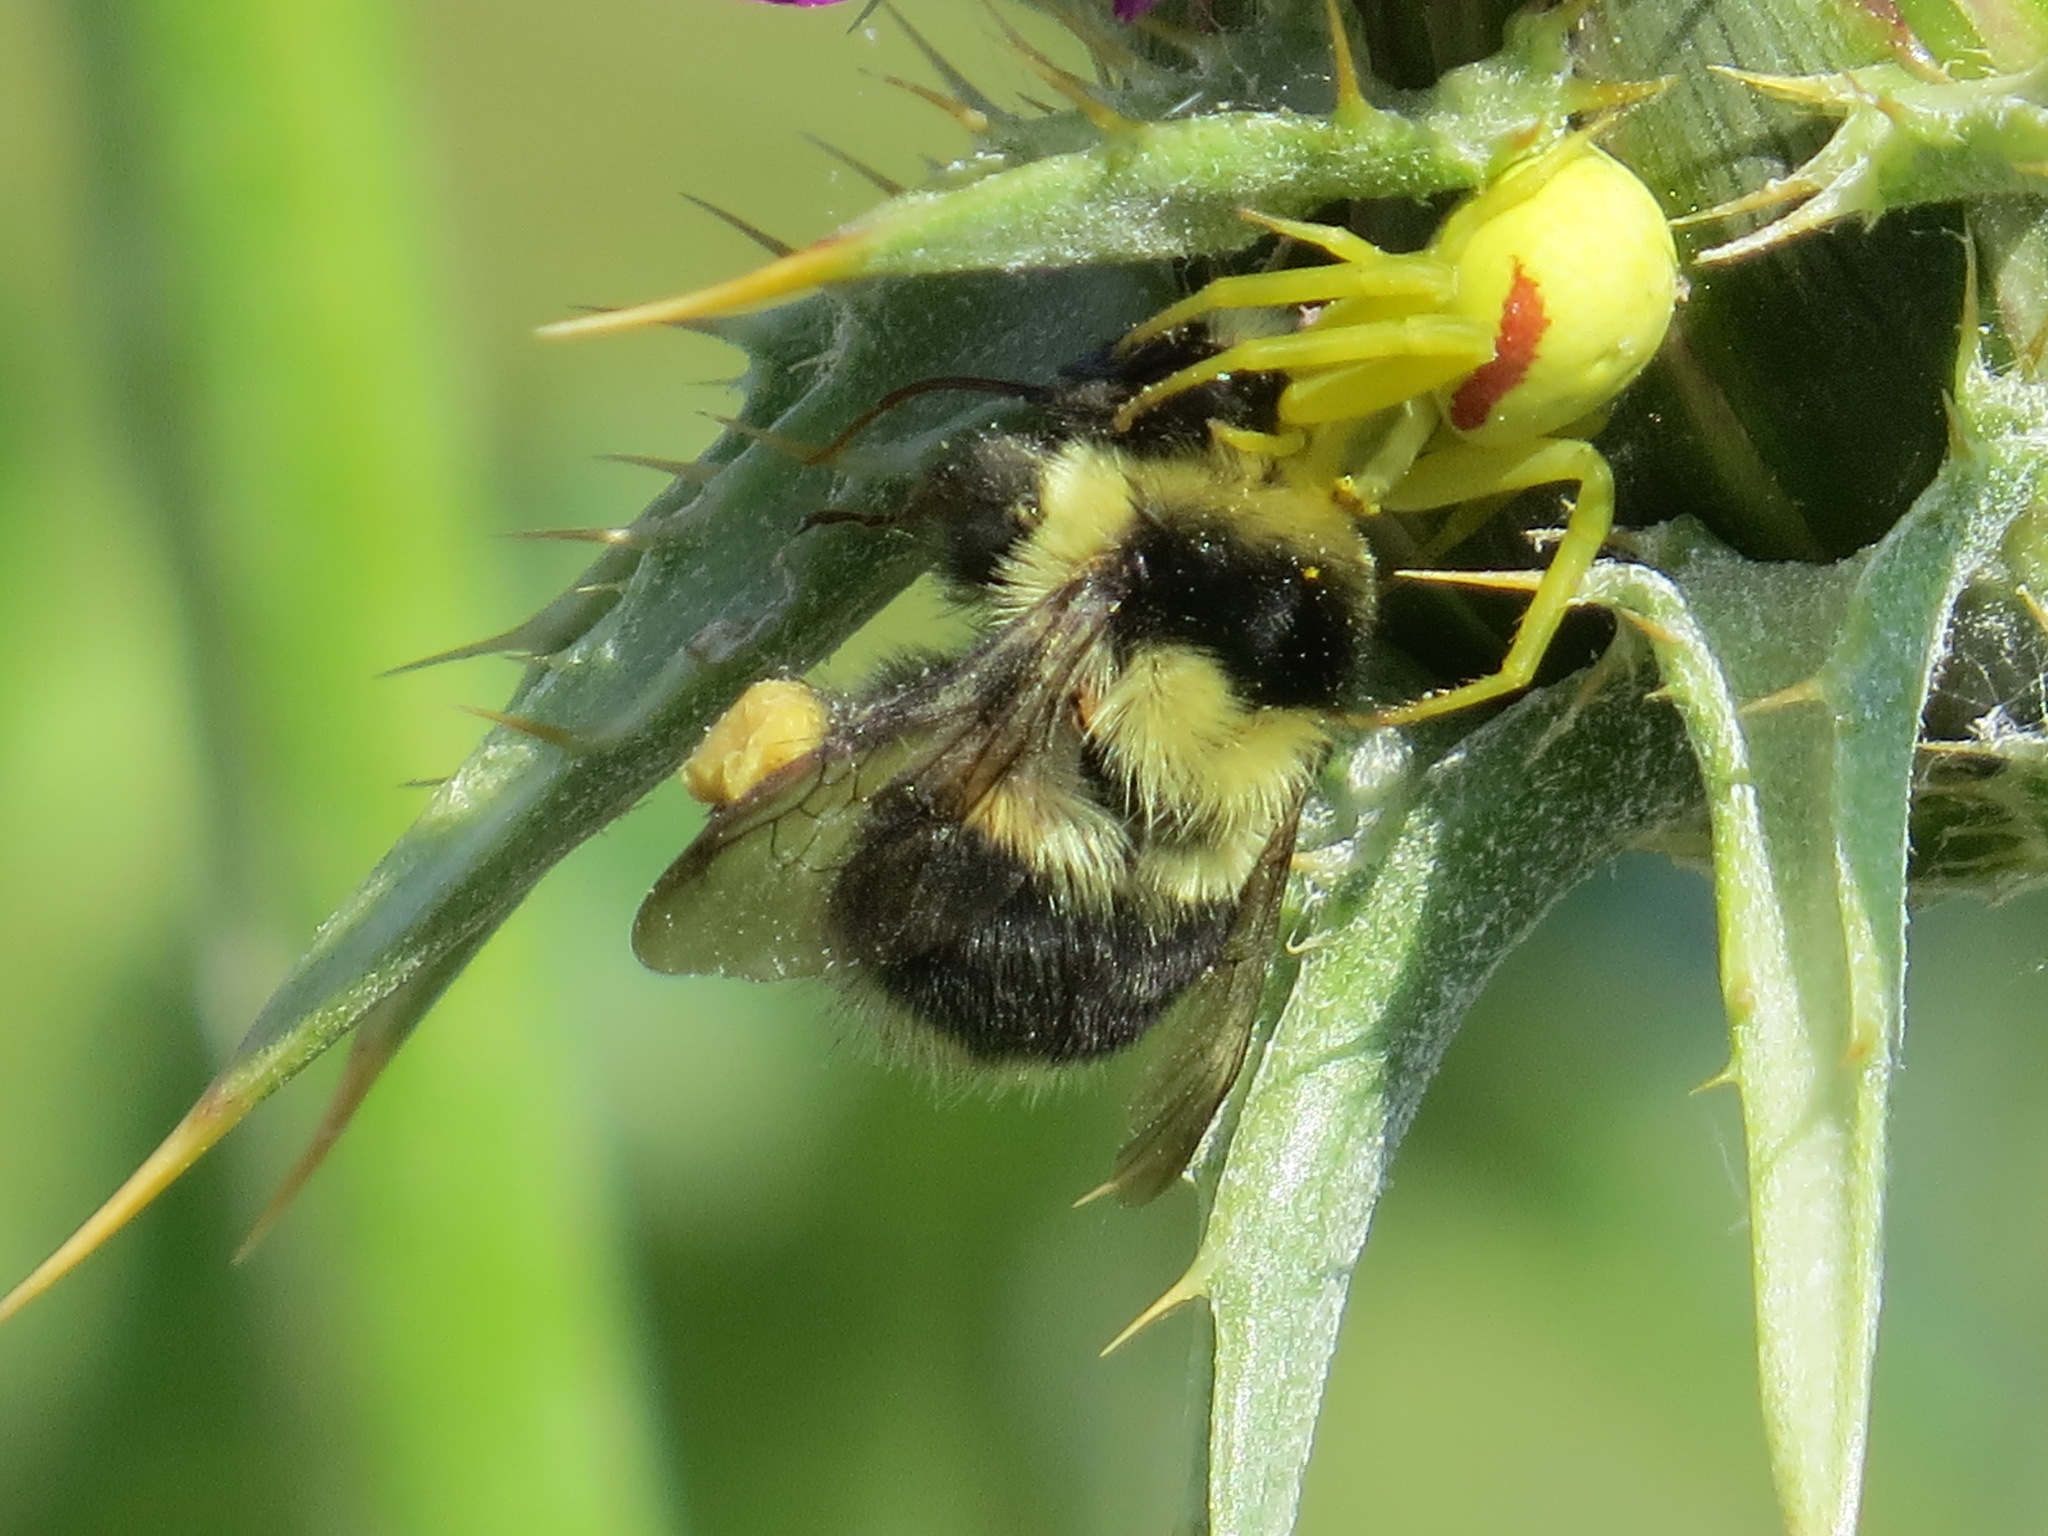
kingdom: Animalia
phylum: Arthropoda
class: Arachnida
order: Araneae
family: Thomisidae
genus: Misumena
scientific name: Misumena vatia
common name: Goldenrod crab spider
